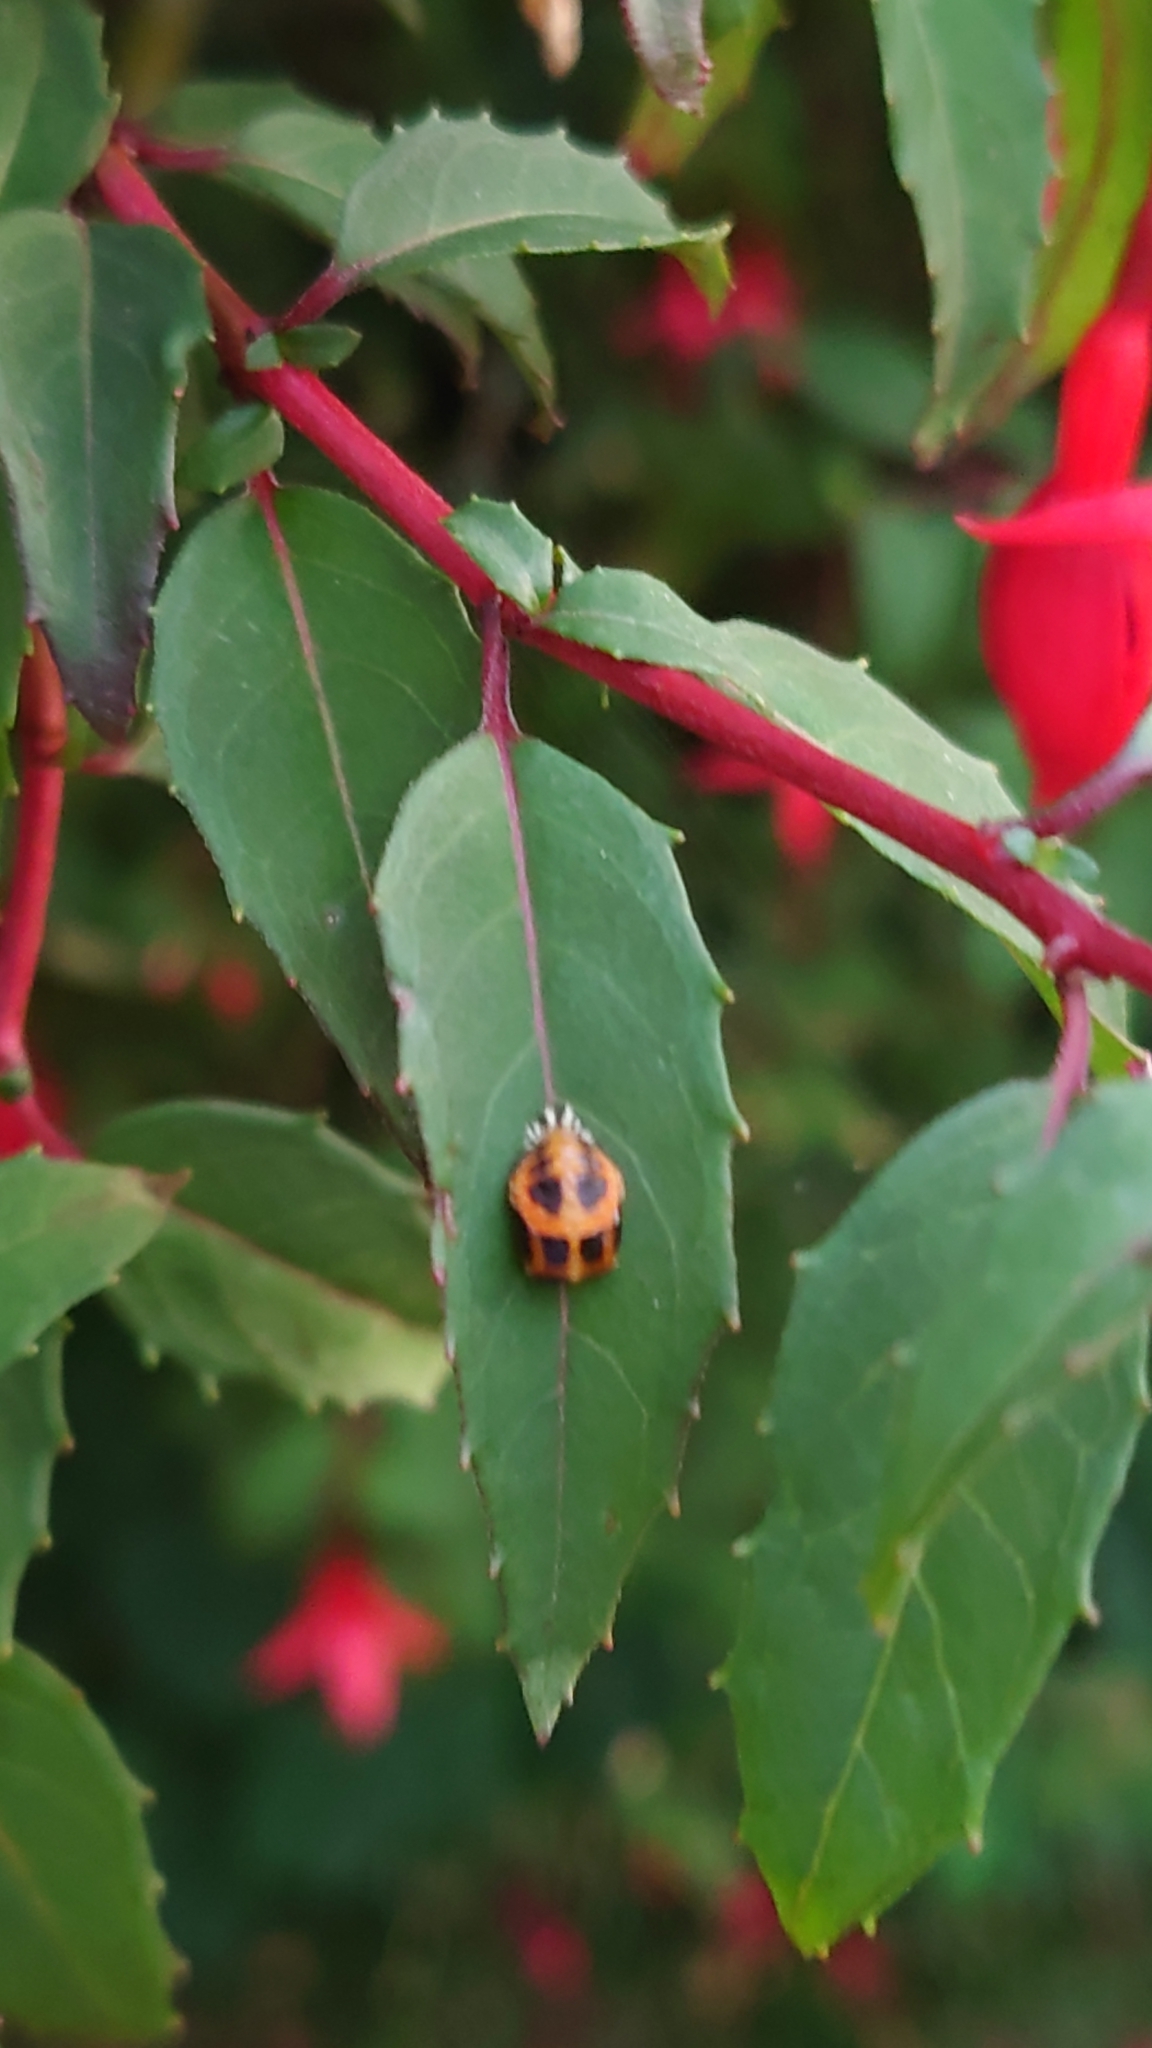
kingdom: Animalia
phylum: Arthropoda
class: Insecta
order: Coleoptera
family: Coccinellidae
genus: Harmonia
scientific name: Harmonia axyridis
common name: Harlequin ladybird
